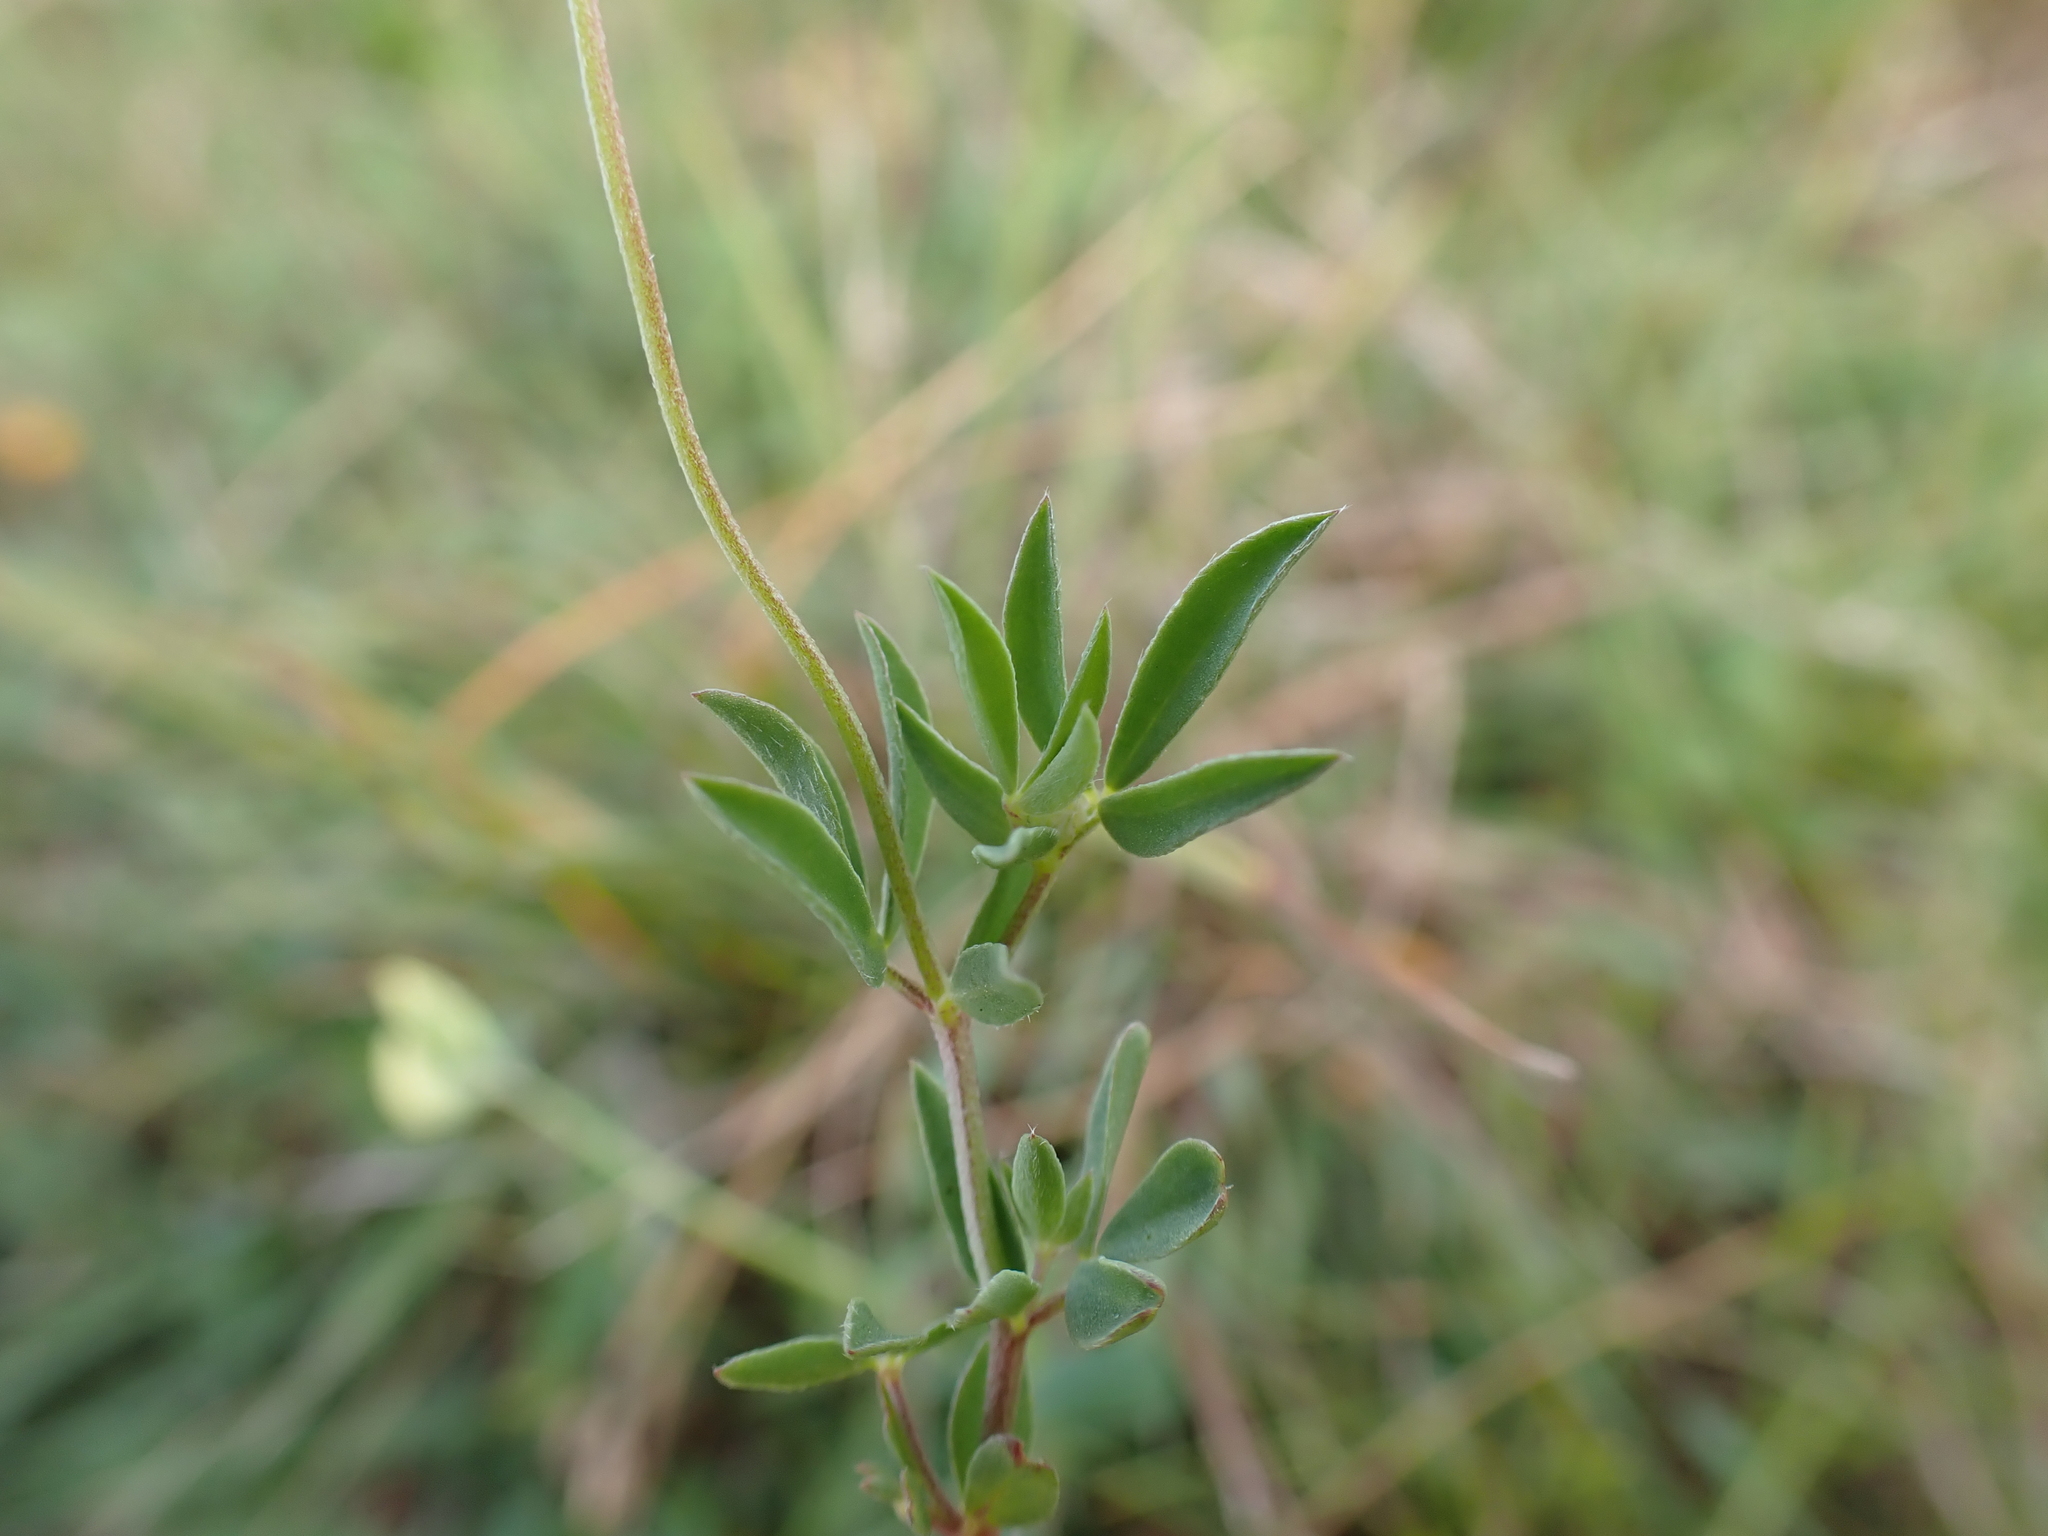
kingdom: Plantae
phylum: Tracheophyta
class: Magnoliopsida
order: Fabales
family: Fabaceae
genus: Lotus
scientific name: Lotus tenuis
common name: Narrow-leaved bird's-foot-trefoil
